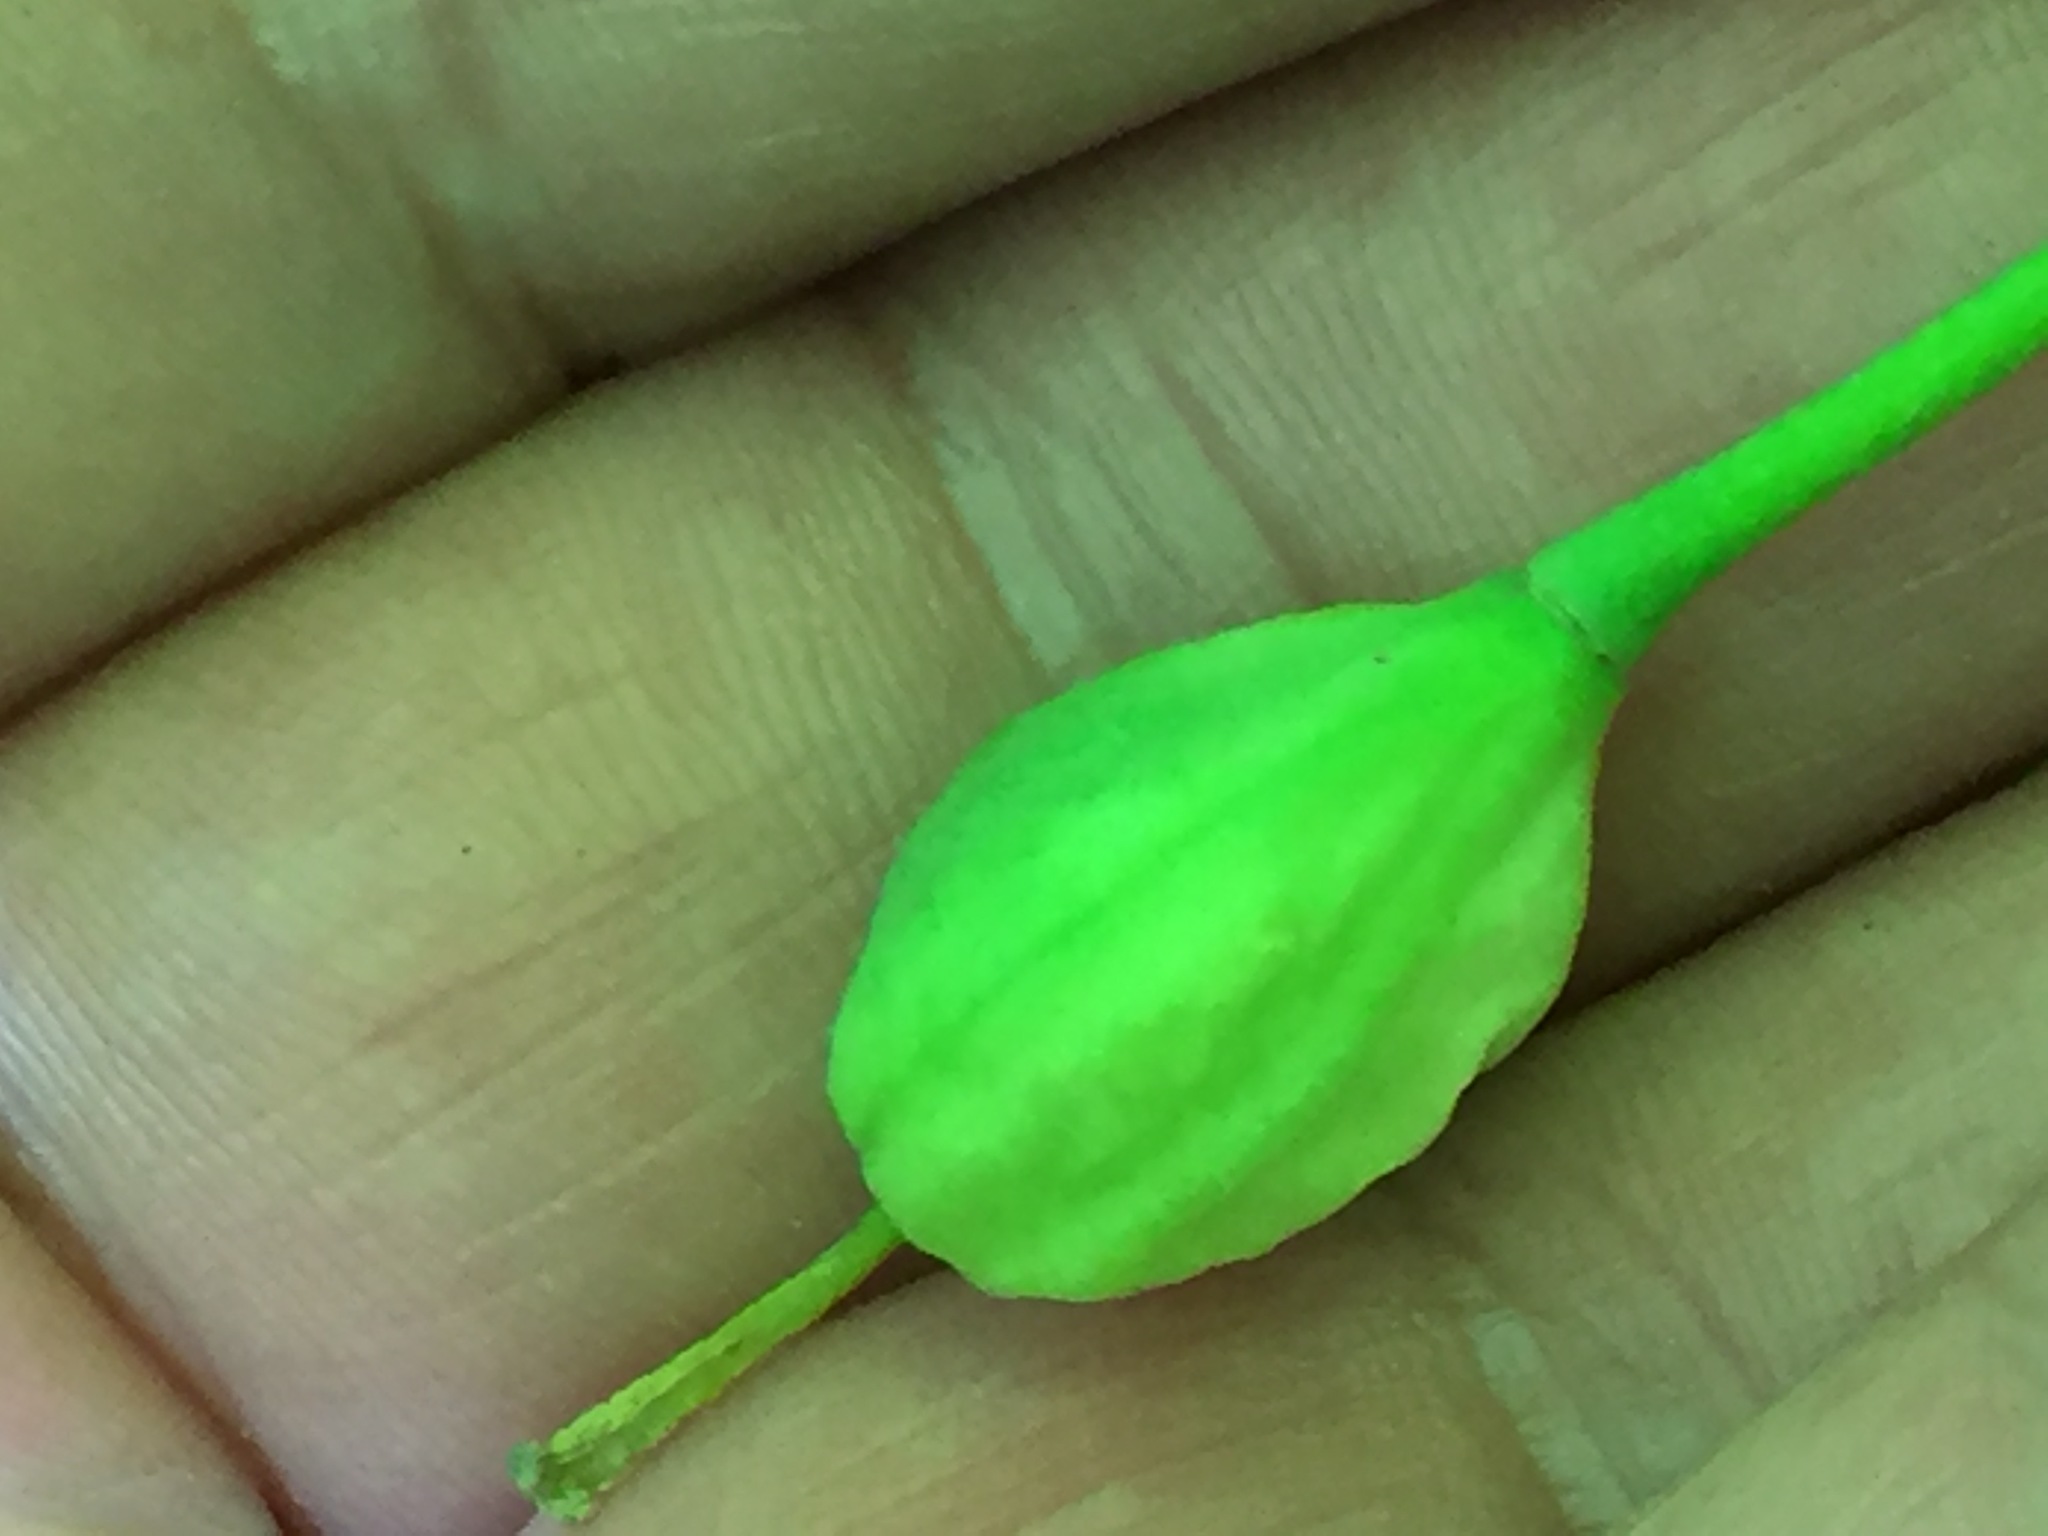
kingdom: Plantae
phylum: Tracheophyta
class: Liliopsida
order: Liliales
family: Liliaceae
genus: Erythronium
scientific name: Erythronium americanum
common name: Yellow adder's-tongue
